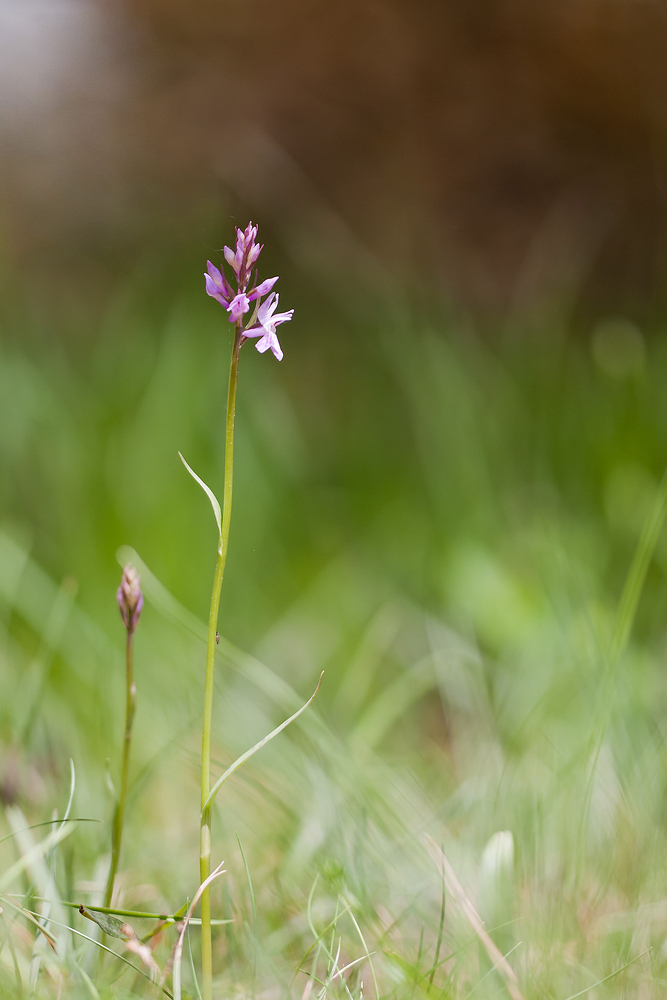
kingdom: Plantae
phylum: Tracheophyta
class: Liliopsida
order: Asparagales
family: Orchidaceae
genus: Dactylorhiza
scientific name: Dactylorhiza maculata
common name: Heath spotted-orchid
